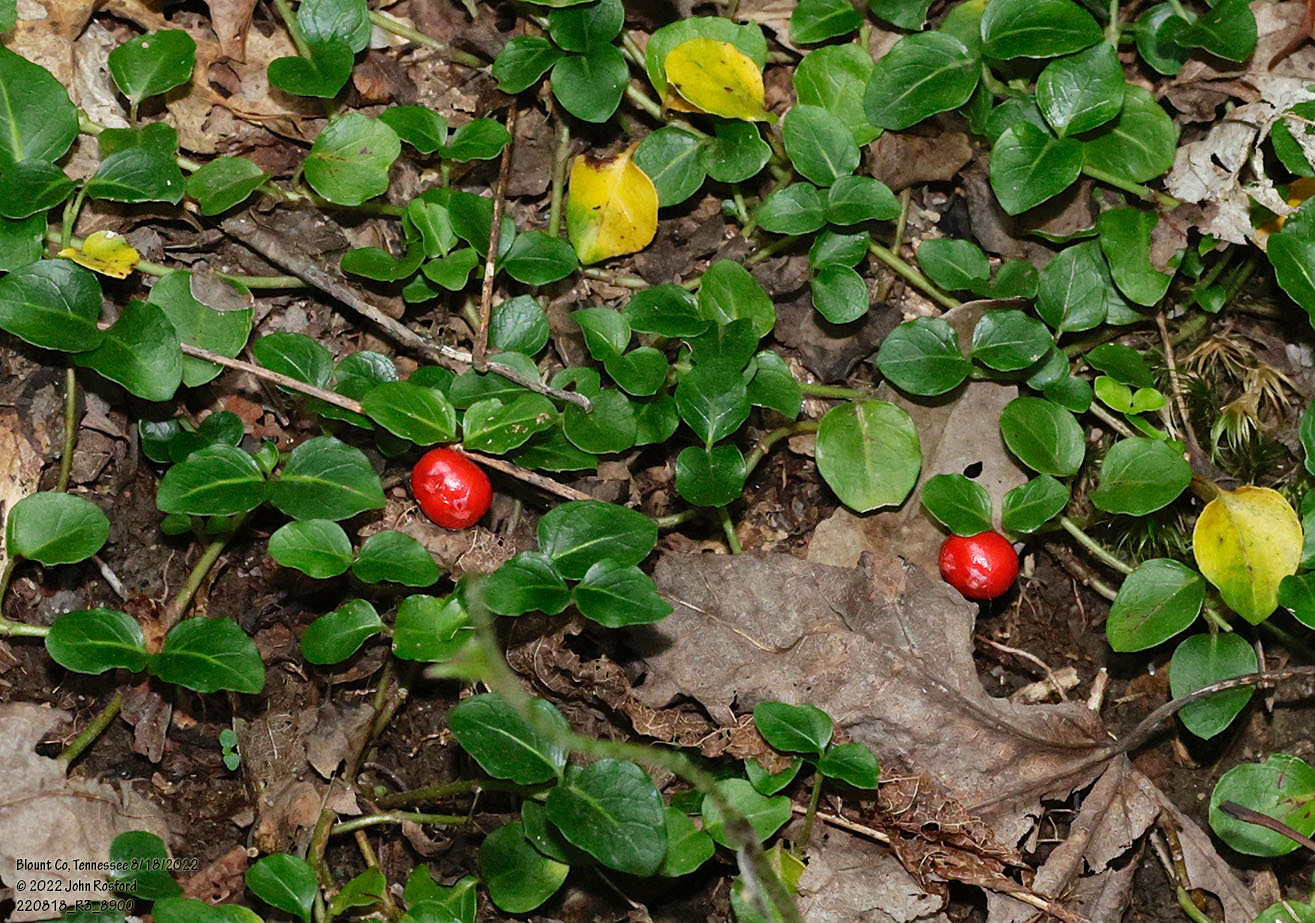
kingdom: Plantae
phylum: Tracheophyta
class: Magnoliopsida
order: Gentianales
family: Rubiaceae
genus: Mitchella
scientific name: Mitchella repens
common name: Partridge-berry
